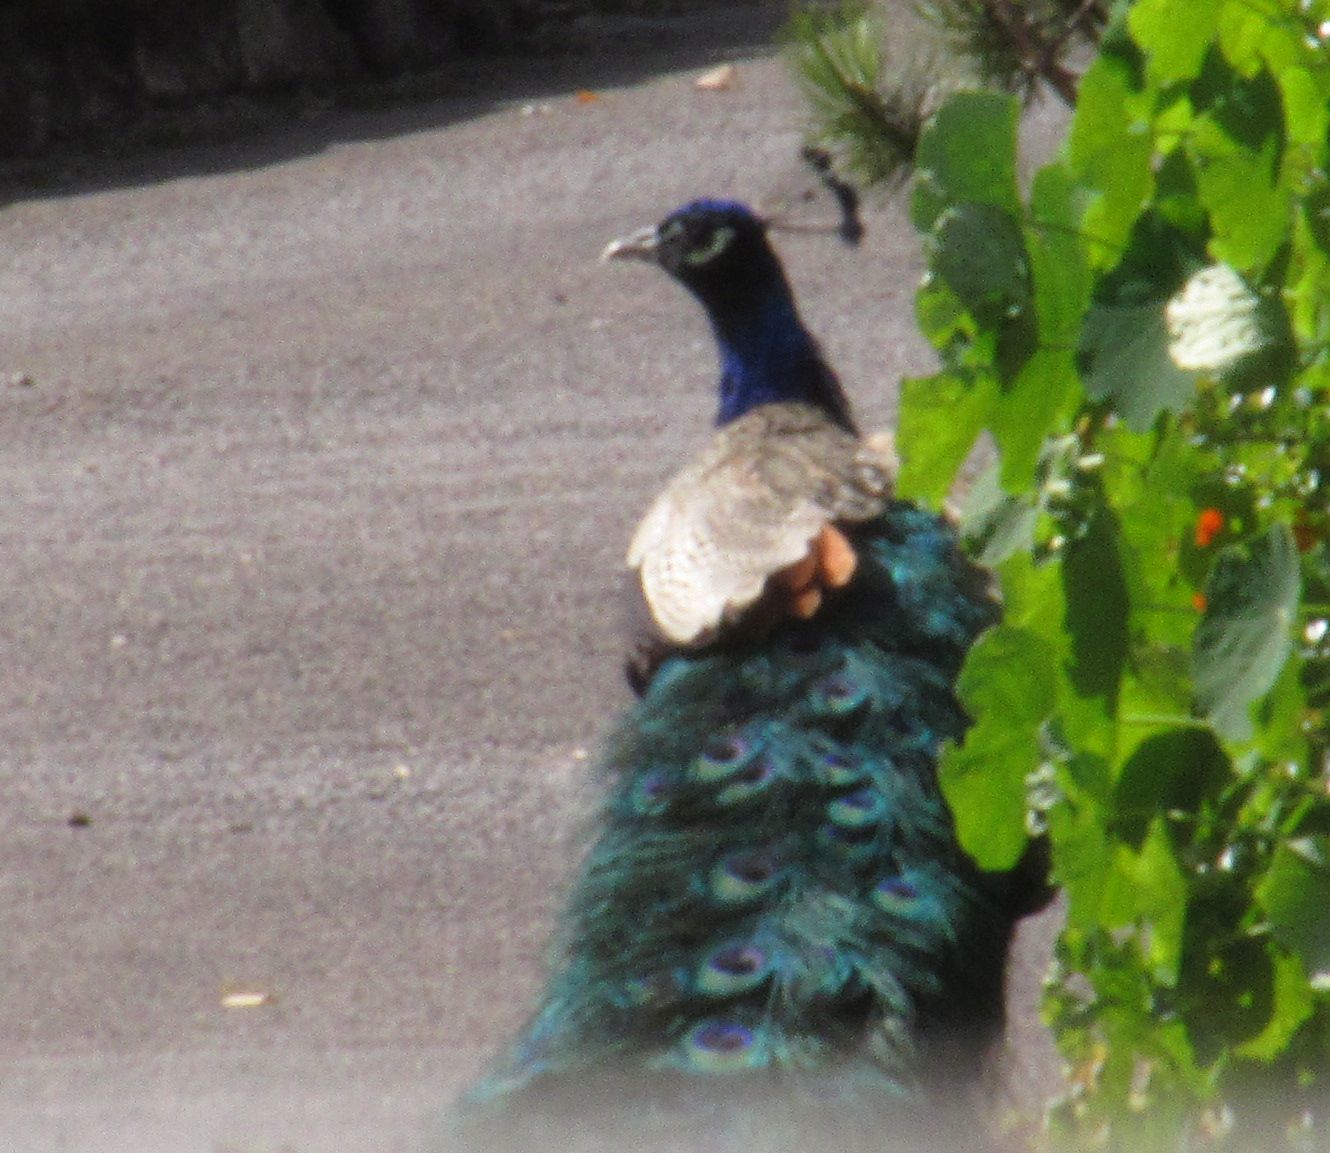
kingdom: Animalia
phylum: Chordata
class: Aves
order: Galliformes
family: Phasianidae
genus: Pavo
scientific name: Pavo cristatus
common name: Indian peafowl
